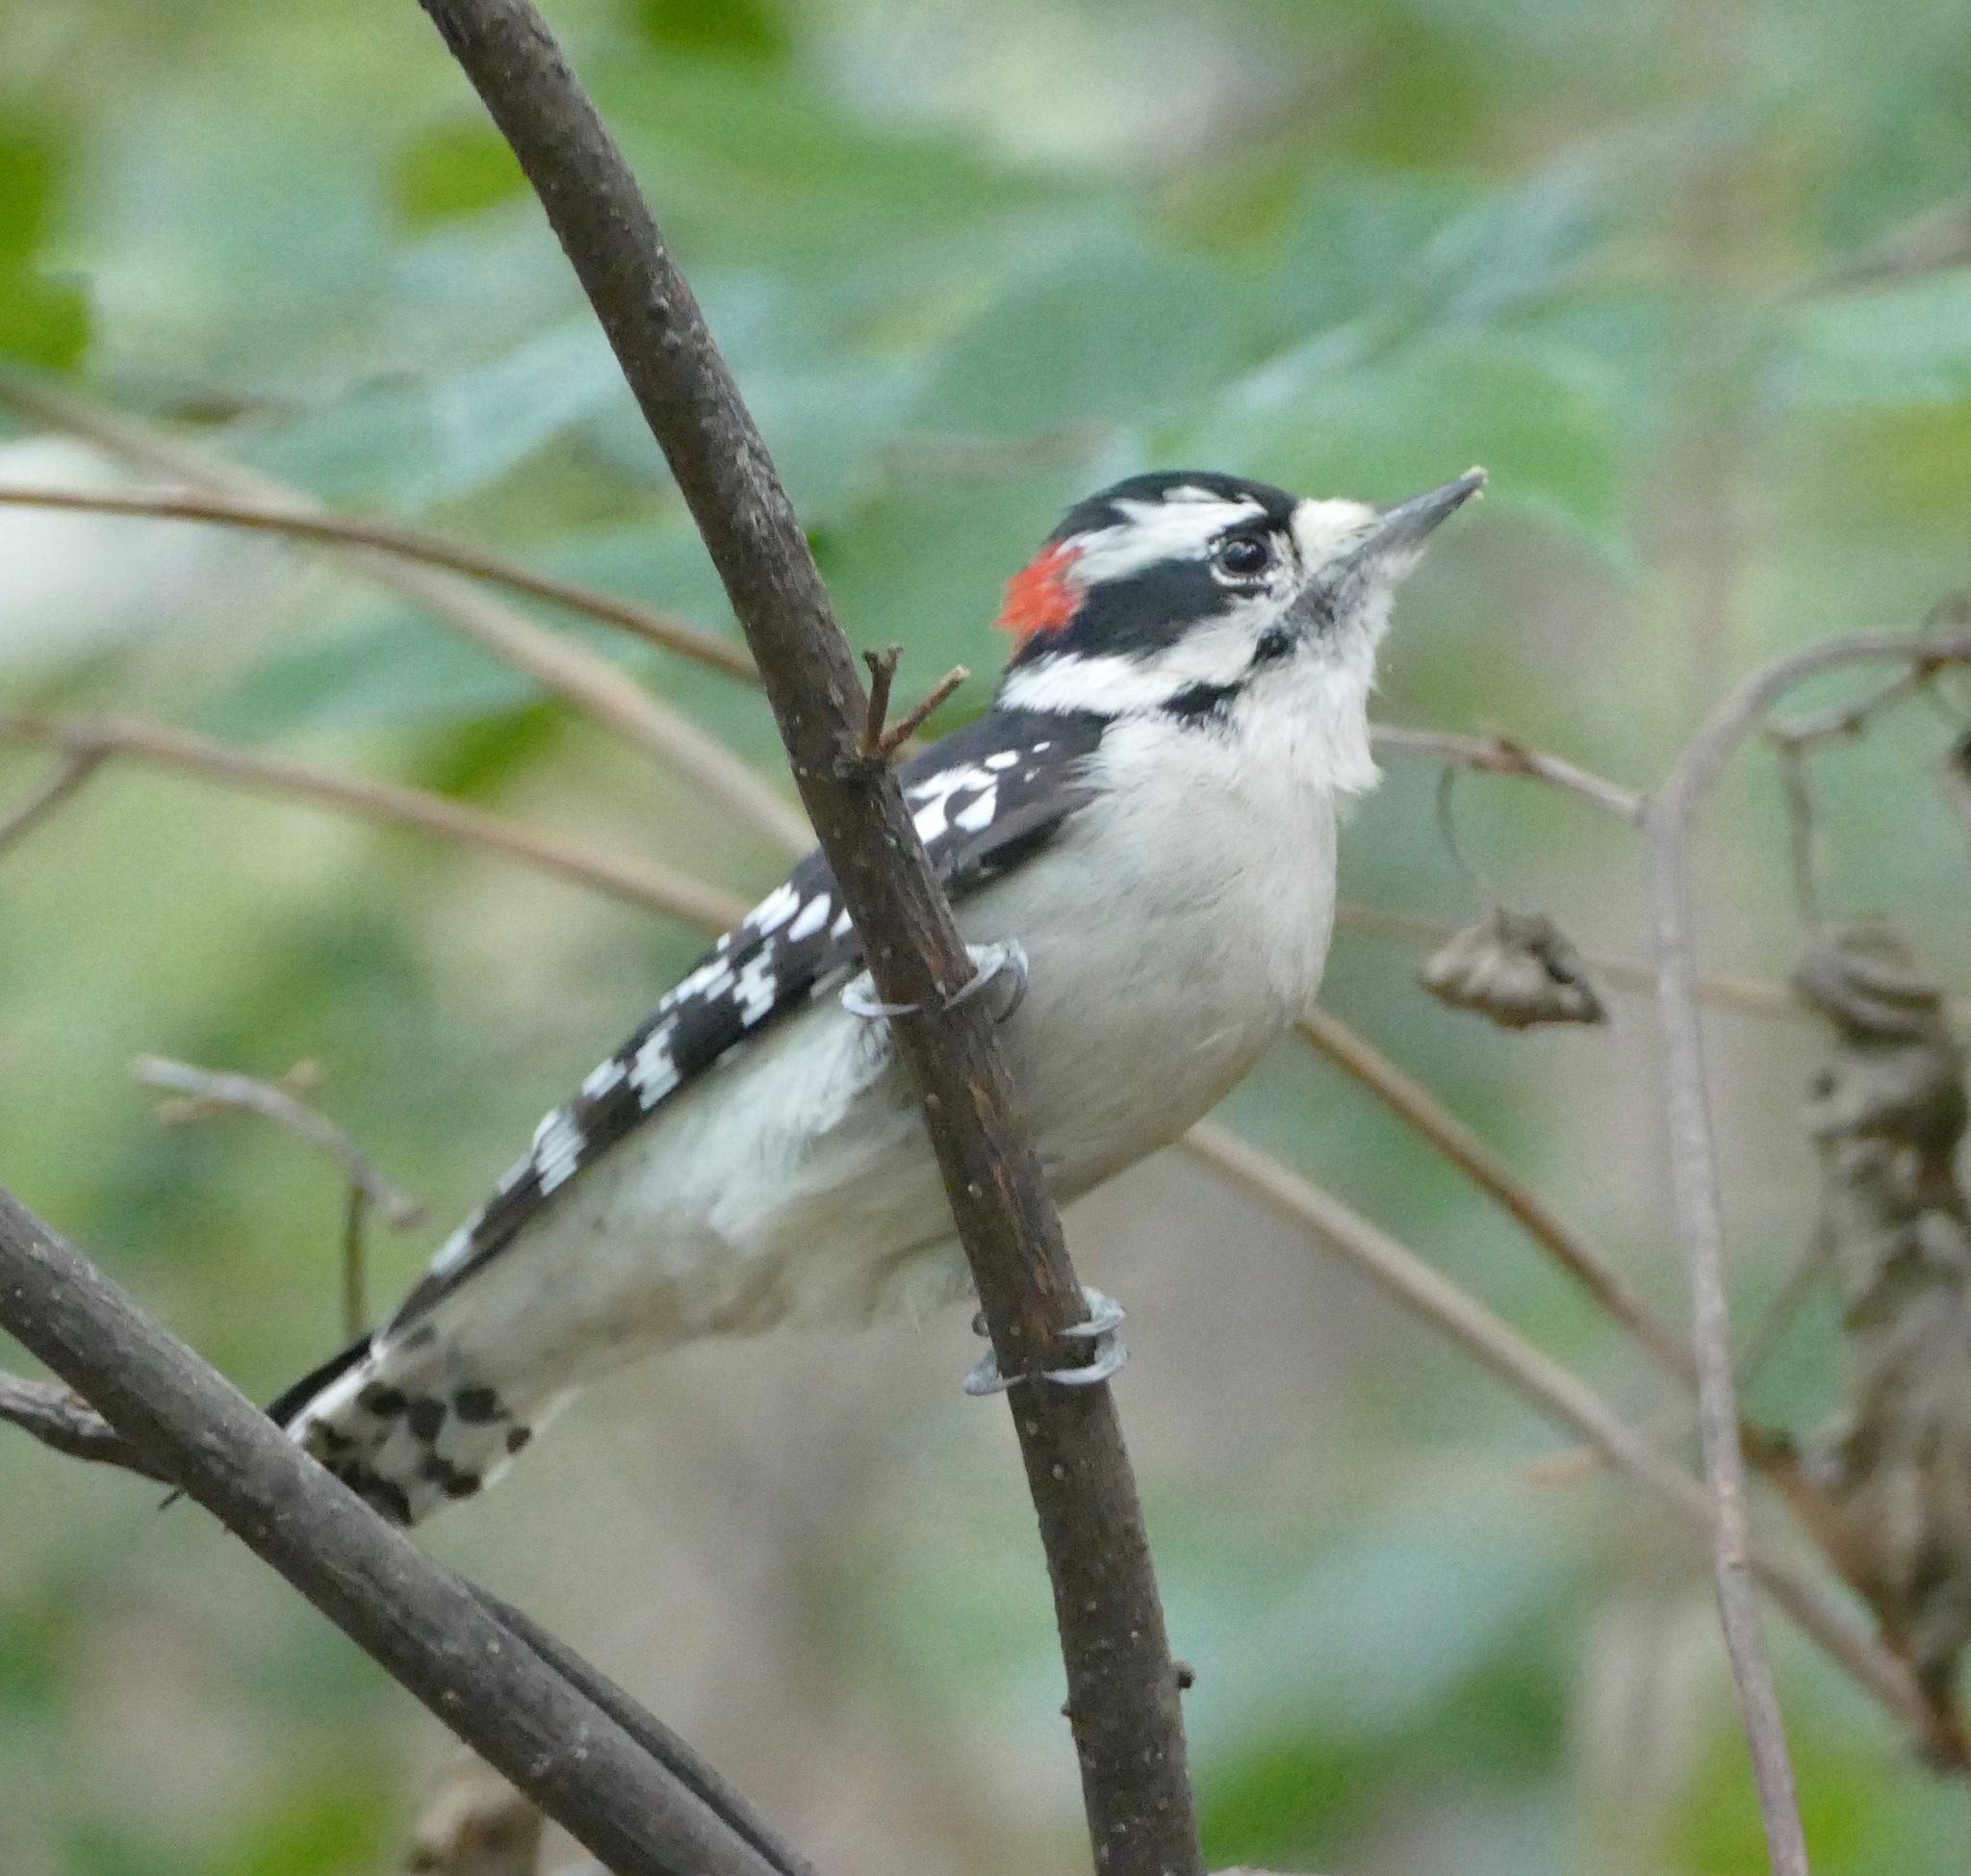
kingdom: Animalia
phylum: Chordata
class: Aves
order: Piciformes
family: Picidae
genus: Dryobates
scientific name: Dryobates pubescens
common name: Downy woodpecker
